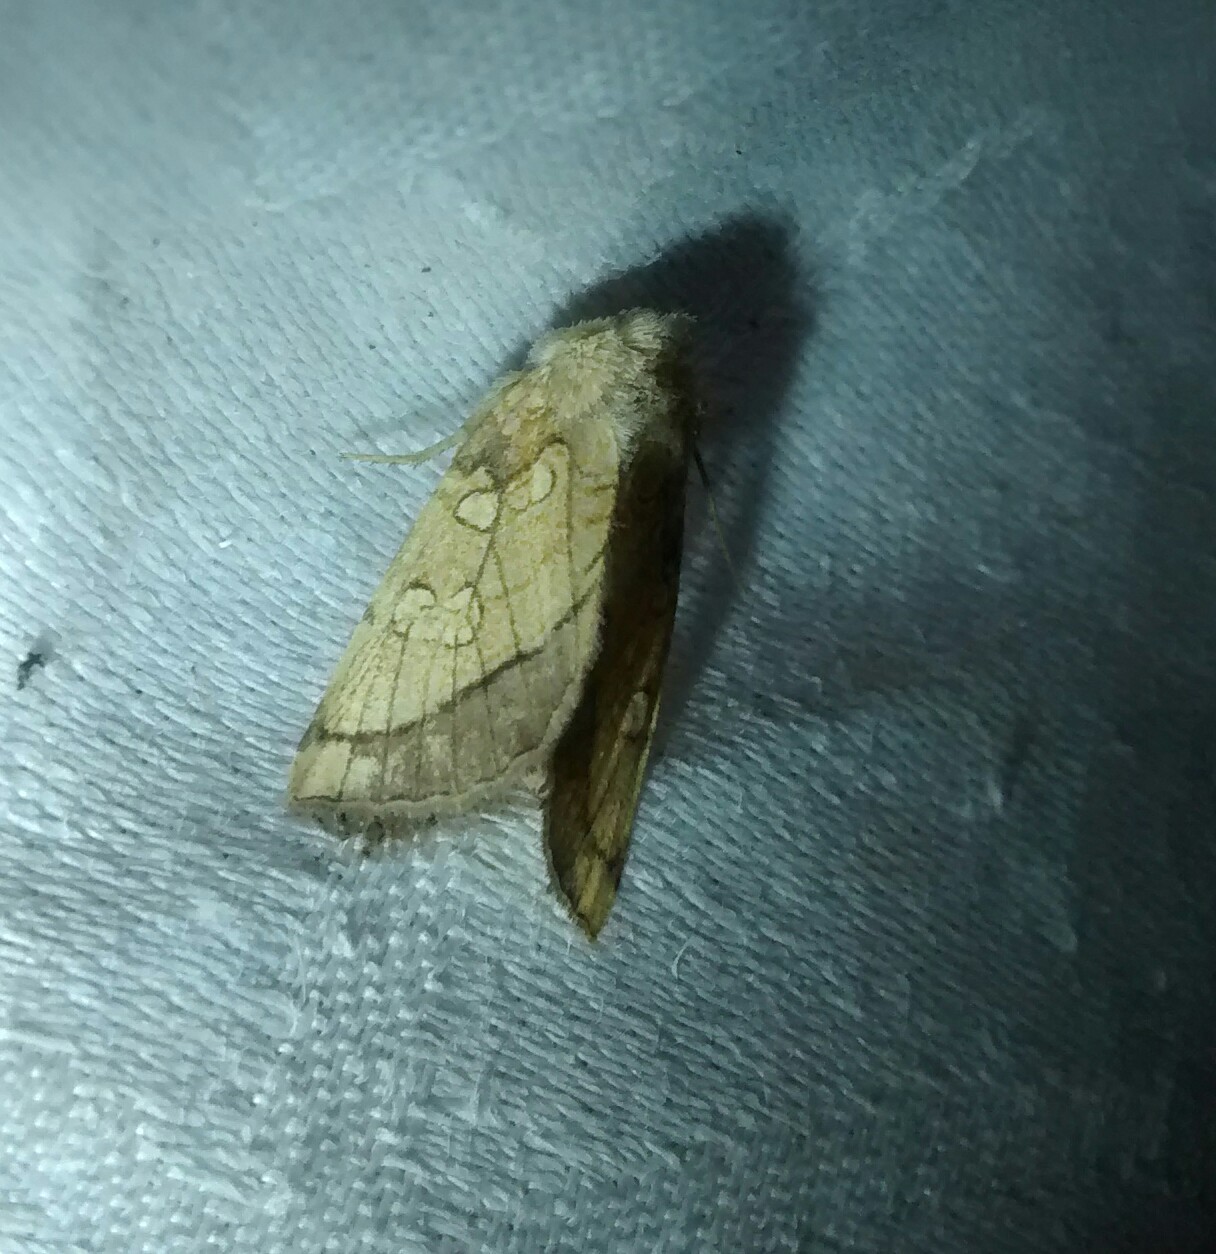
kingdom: Animalia
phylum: Arthropoda
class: Insecta
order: Lepidoptera
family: Noctuidae
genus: Papaipema
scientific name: Papaipema rigida
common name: Rigid sunflower borer moth
